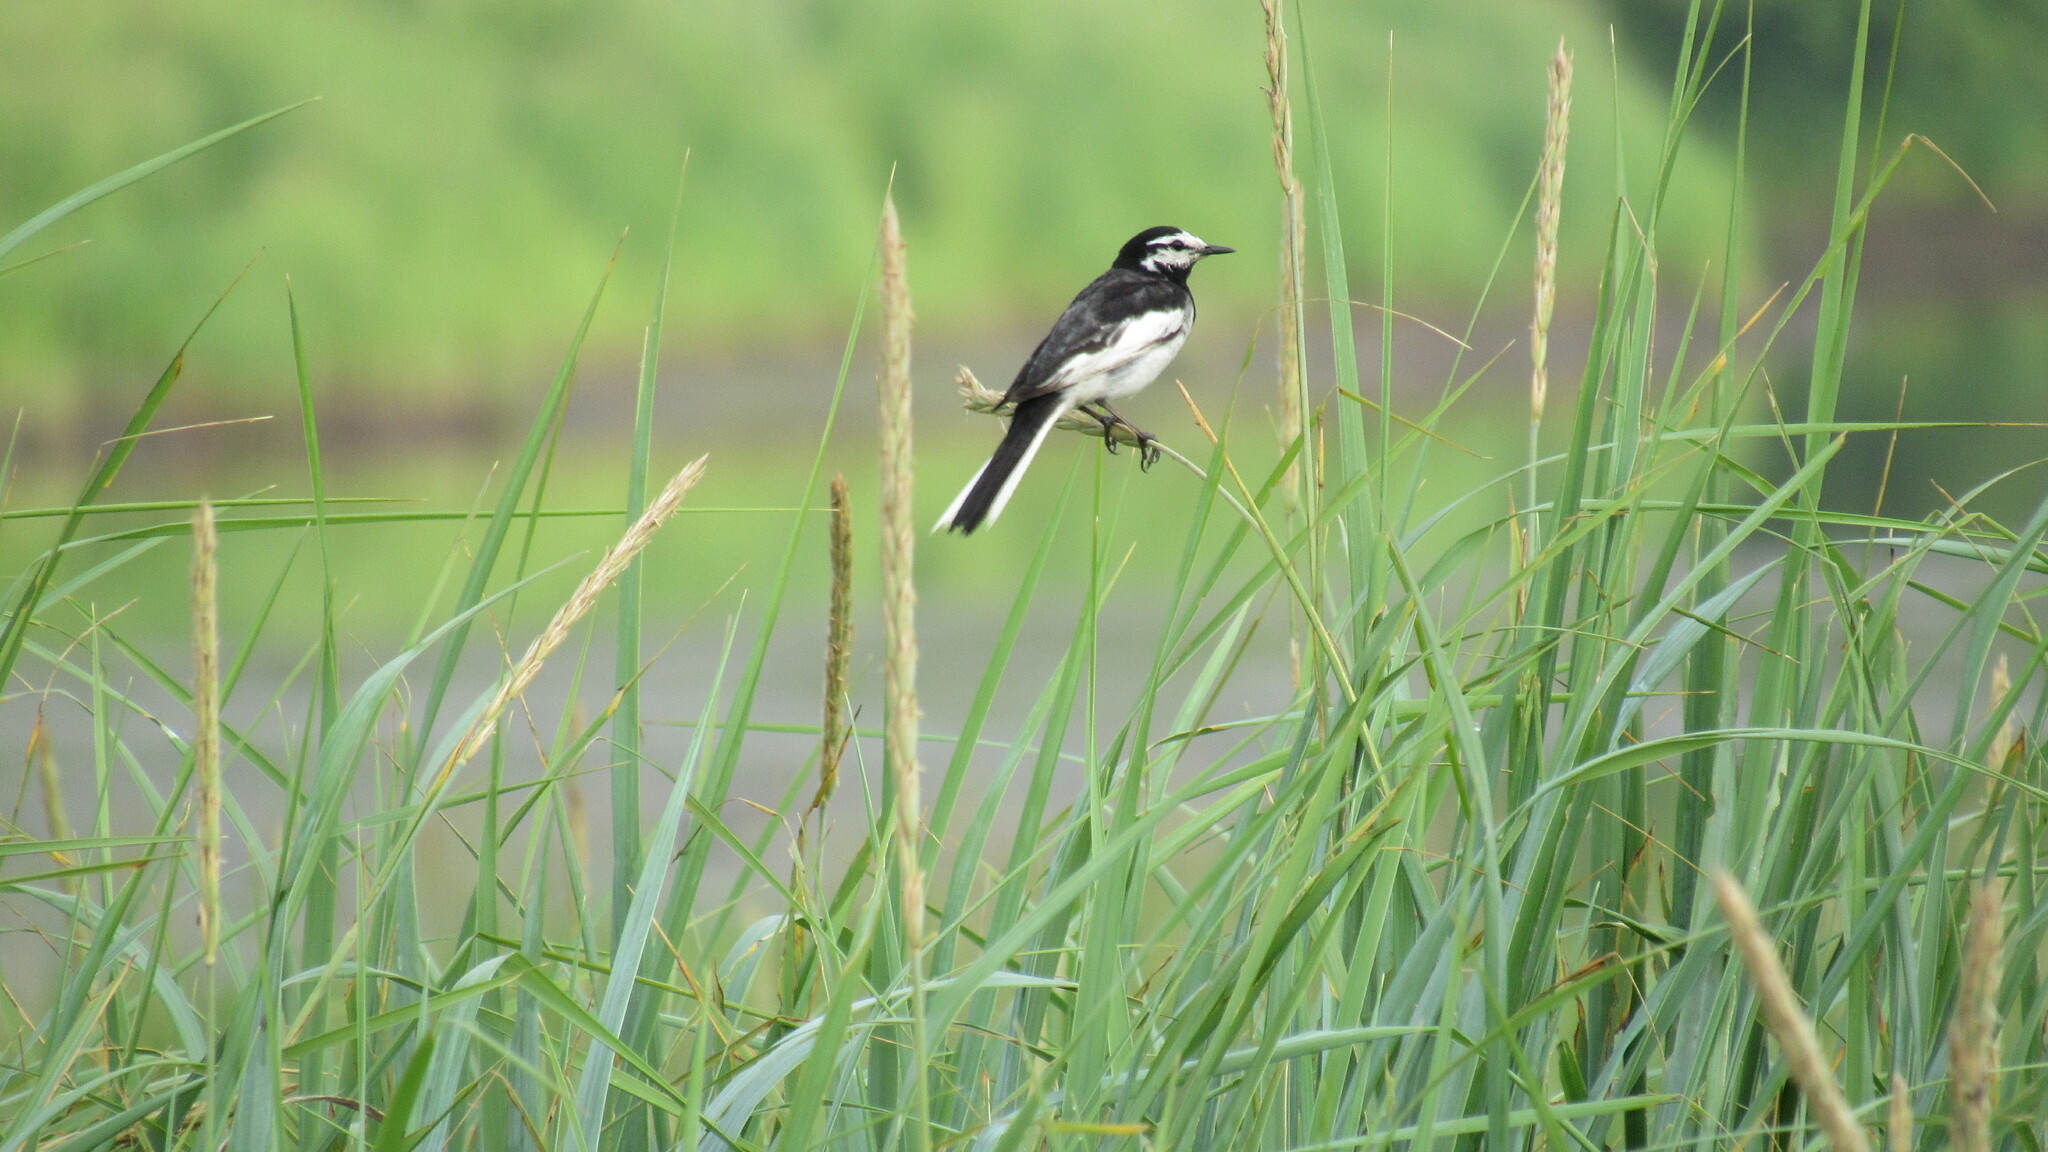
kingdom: Animalia
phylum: Chordata
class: Aves
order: Passeriformes
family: Motacillidae
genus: Motacilla
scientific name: Motacilla alba
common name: White wagtail
